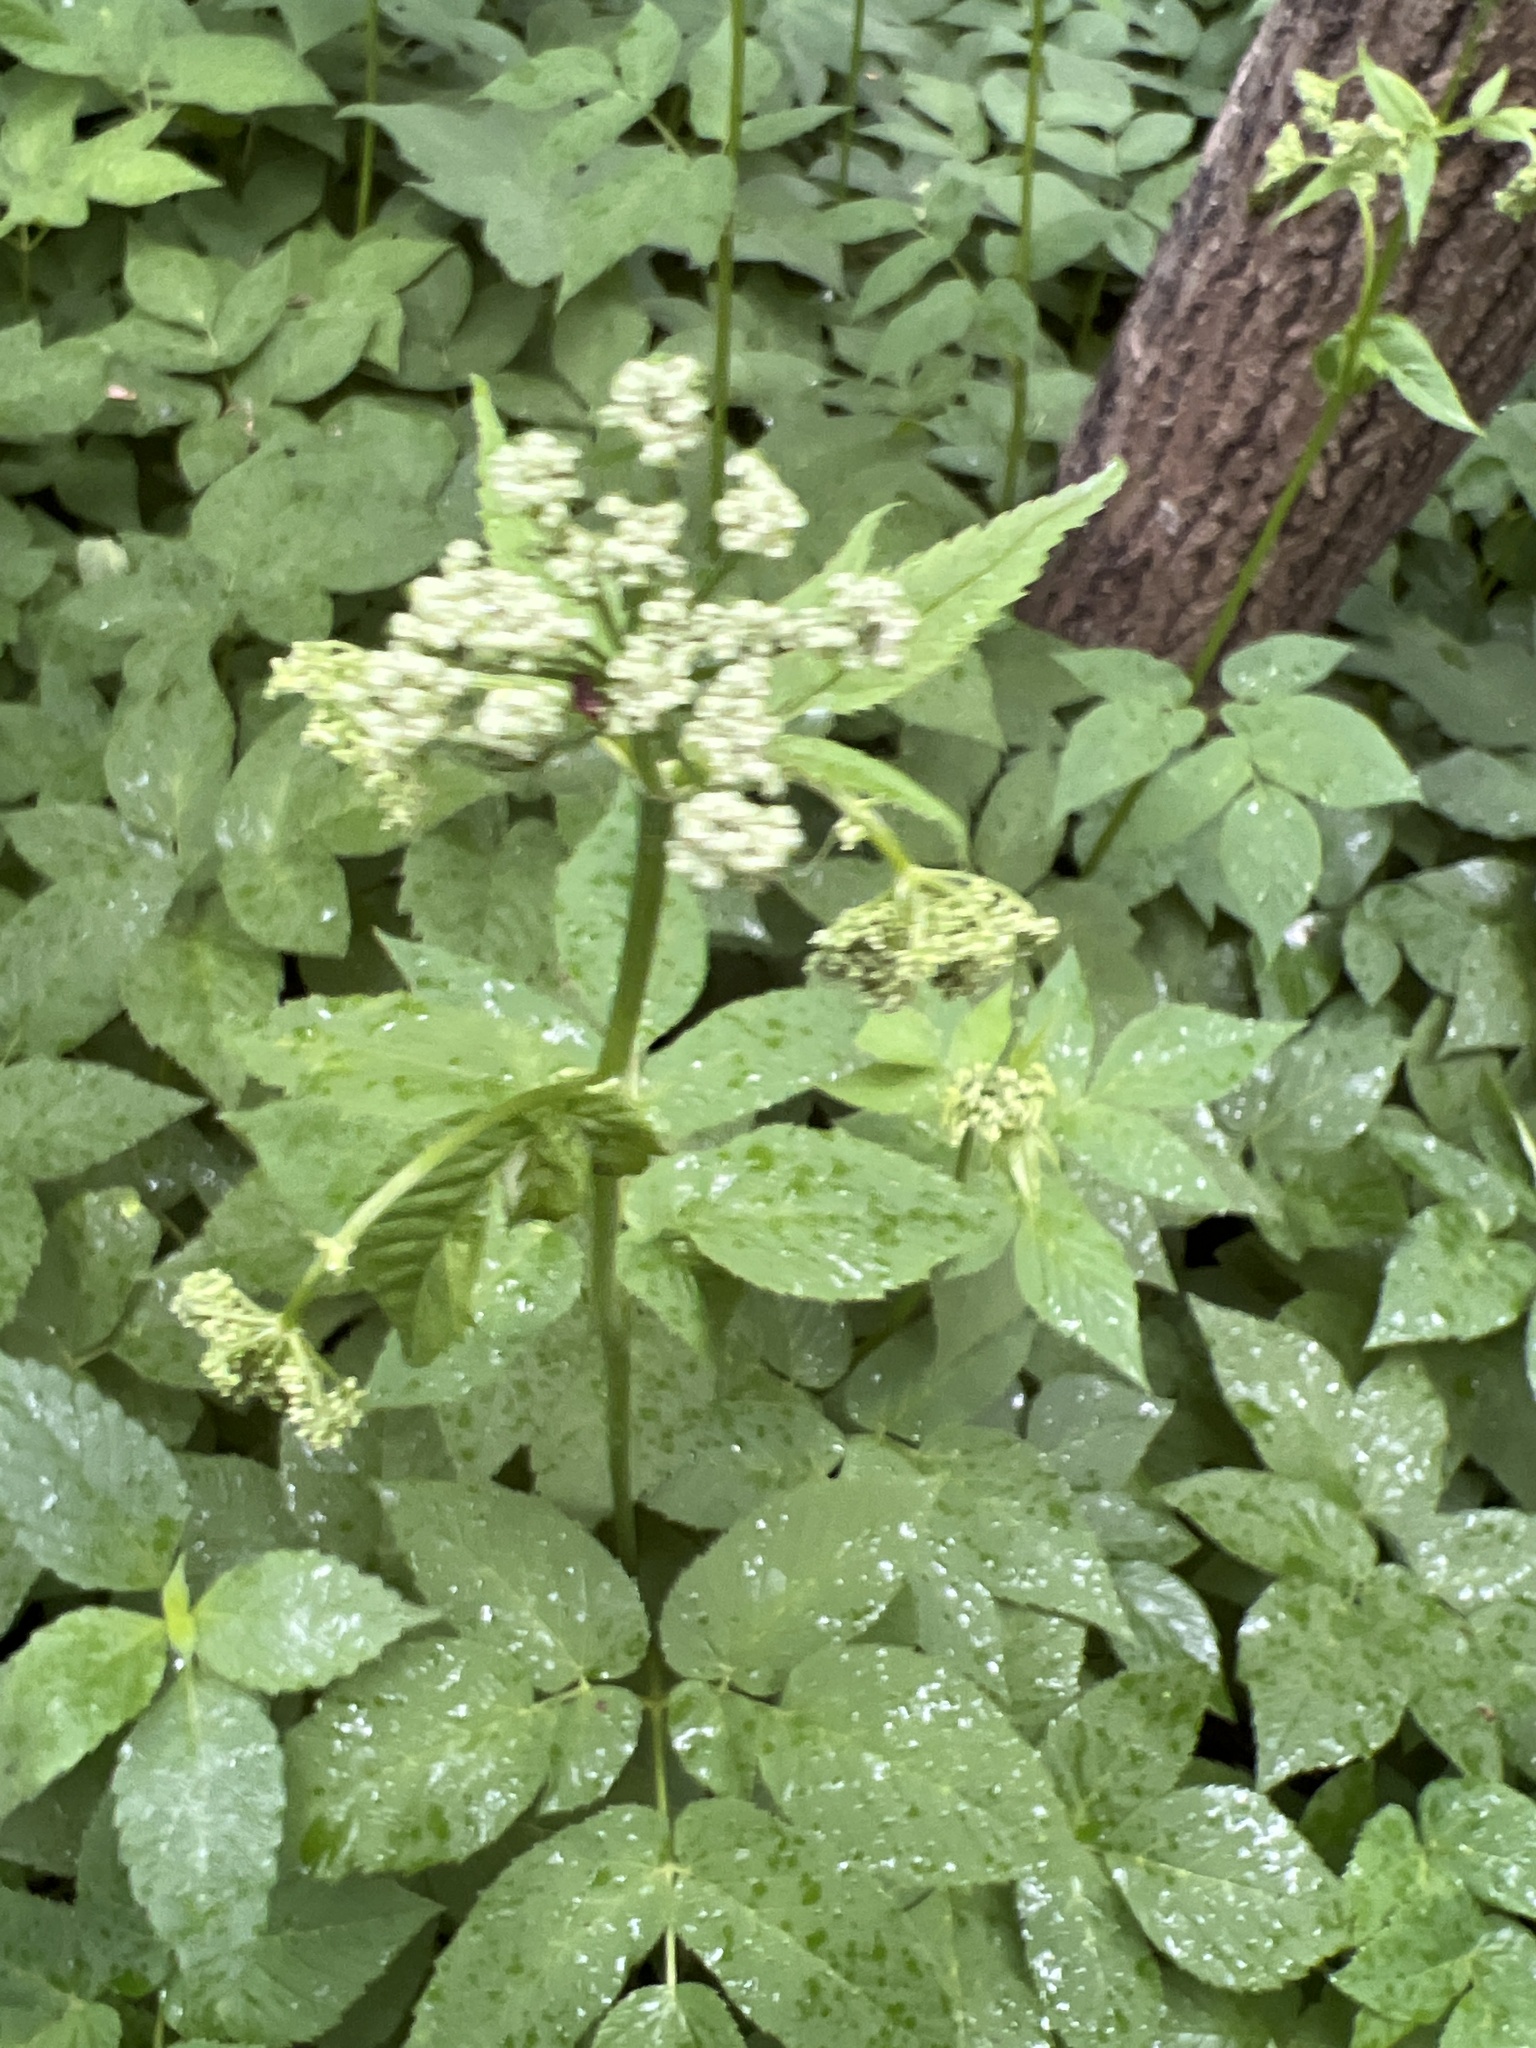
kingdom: Plantae
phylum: Tracheophyta
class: Magnoliopsida
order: Apiales
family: Apiaceae
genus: Aegopodium
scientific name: Aegopodium podagraria
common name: Ground-elder
